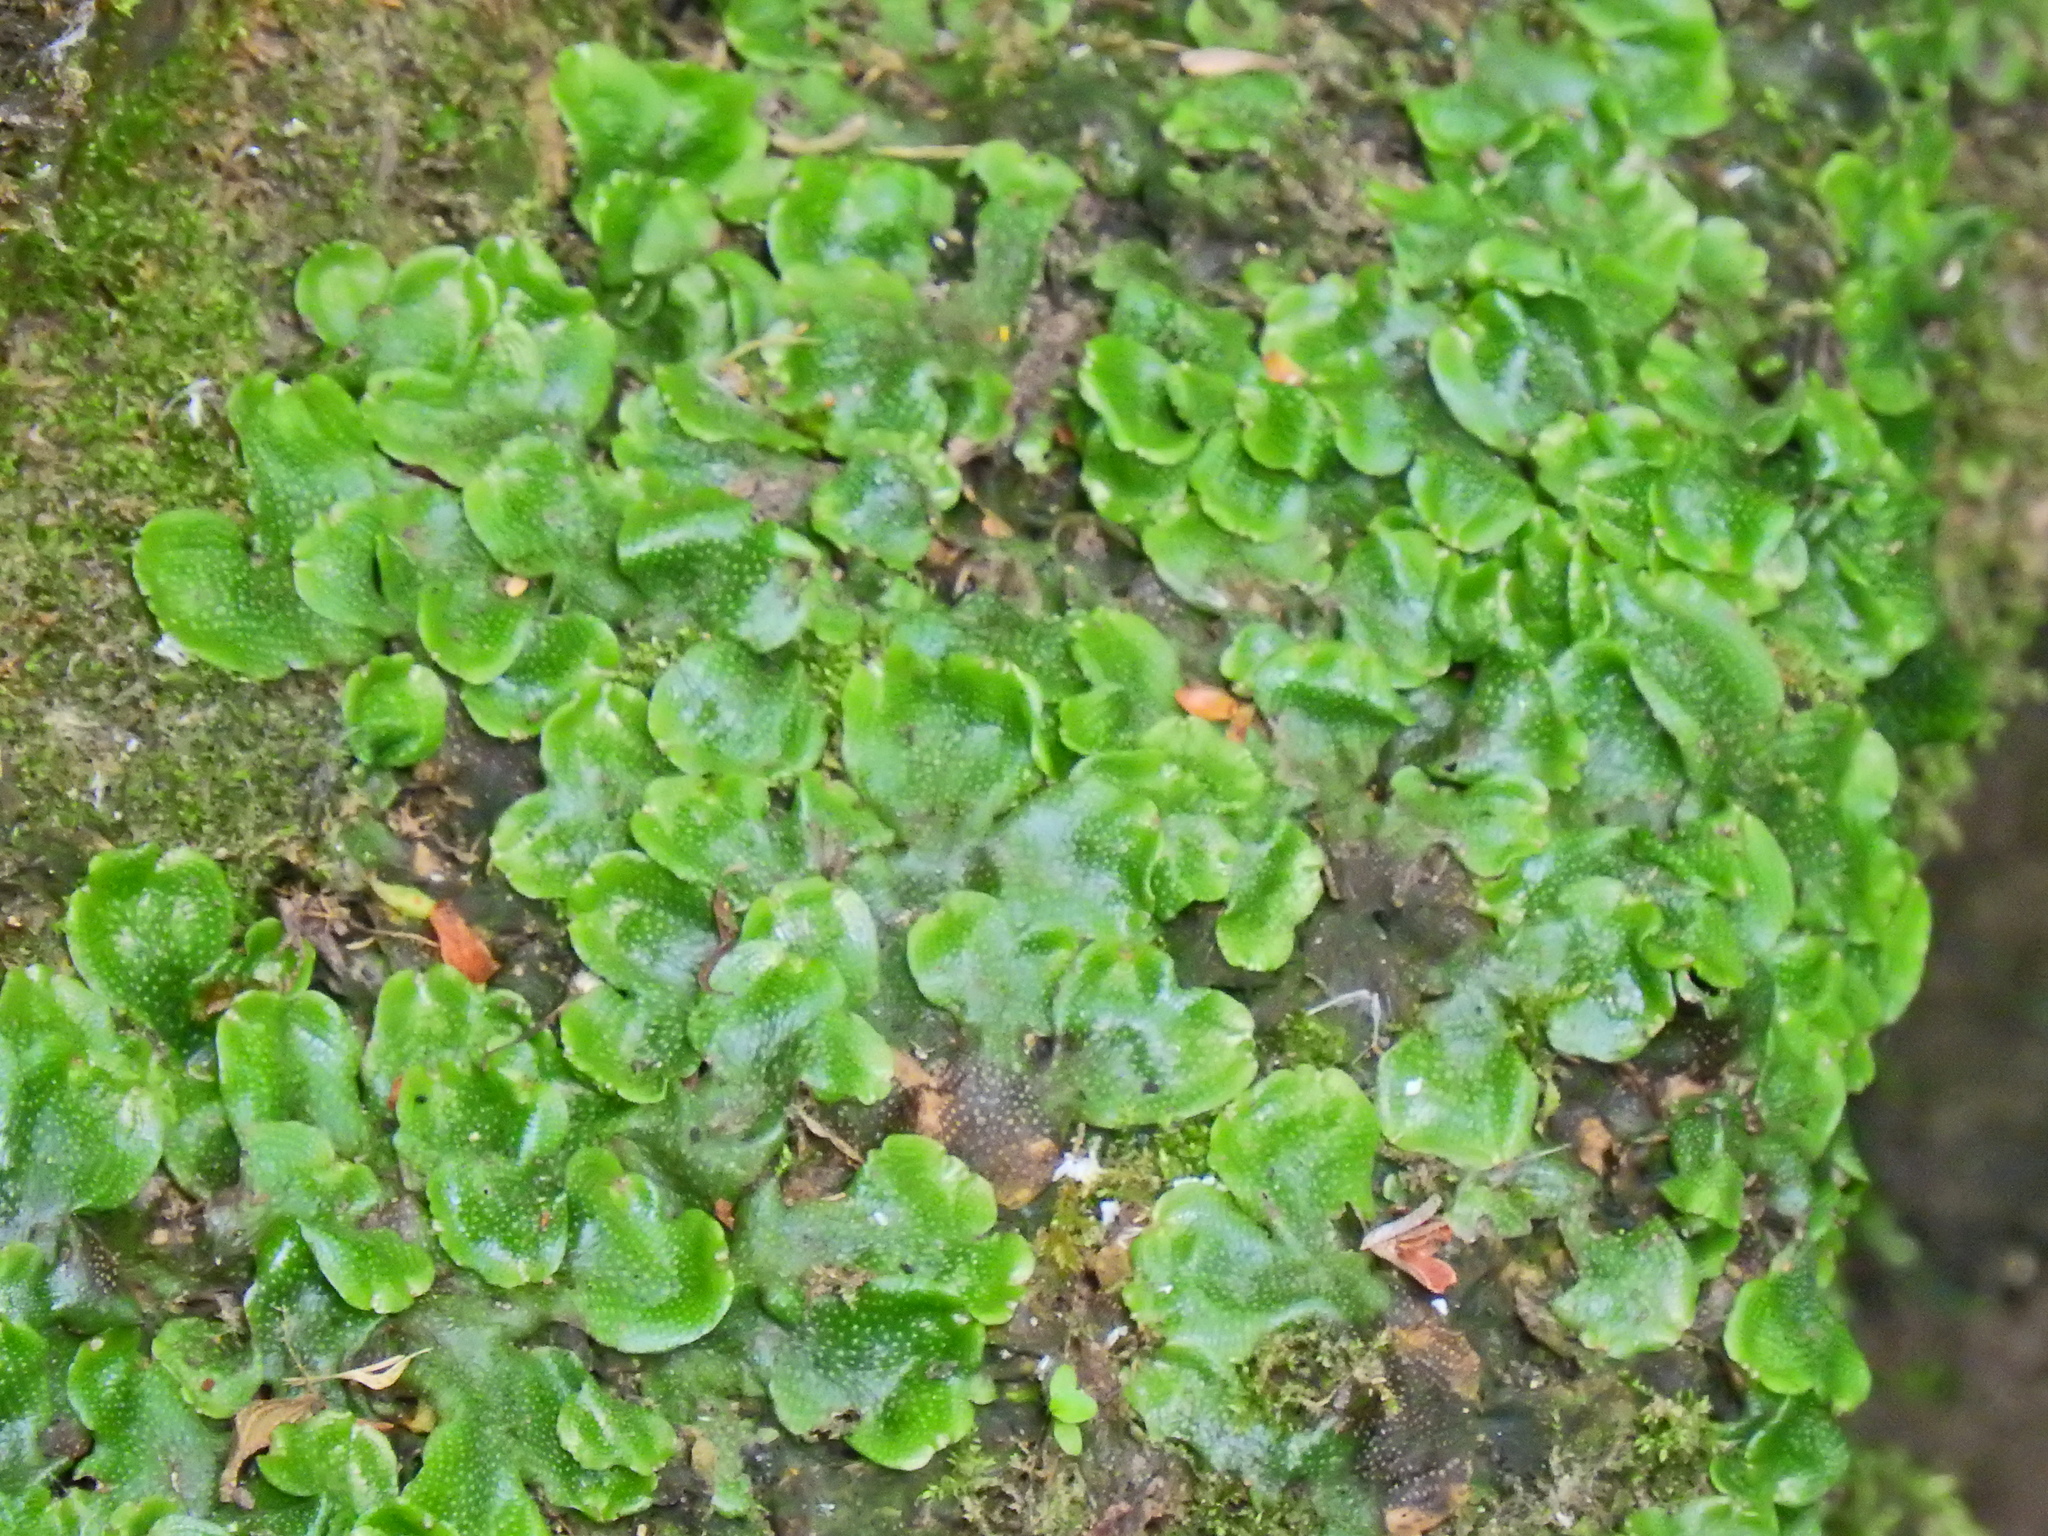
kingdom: Plantae
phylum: Marchantiophyta
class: Marchantiopsida
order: Marchantiales
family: Conocephalaceae
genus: Conocephalum
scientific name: Conocephalum conicum
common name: Great scented liverwort
